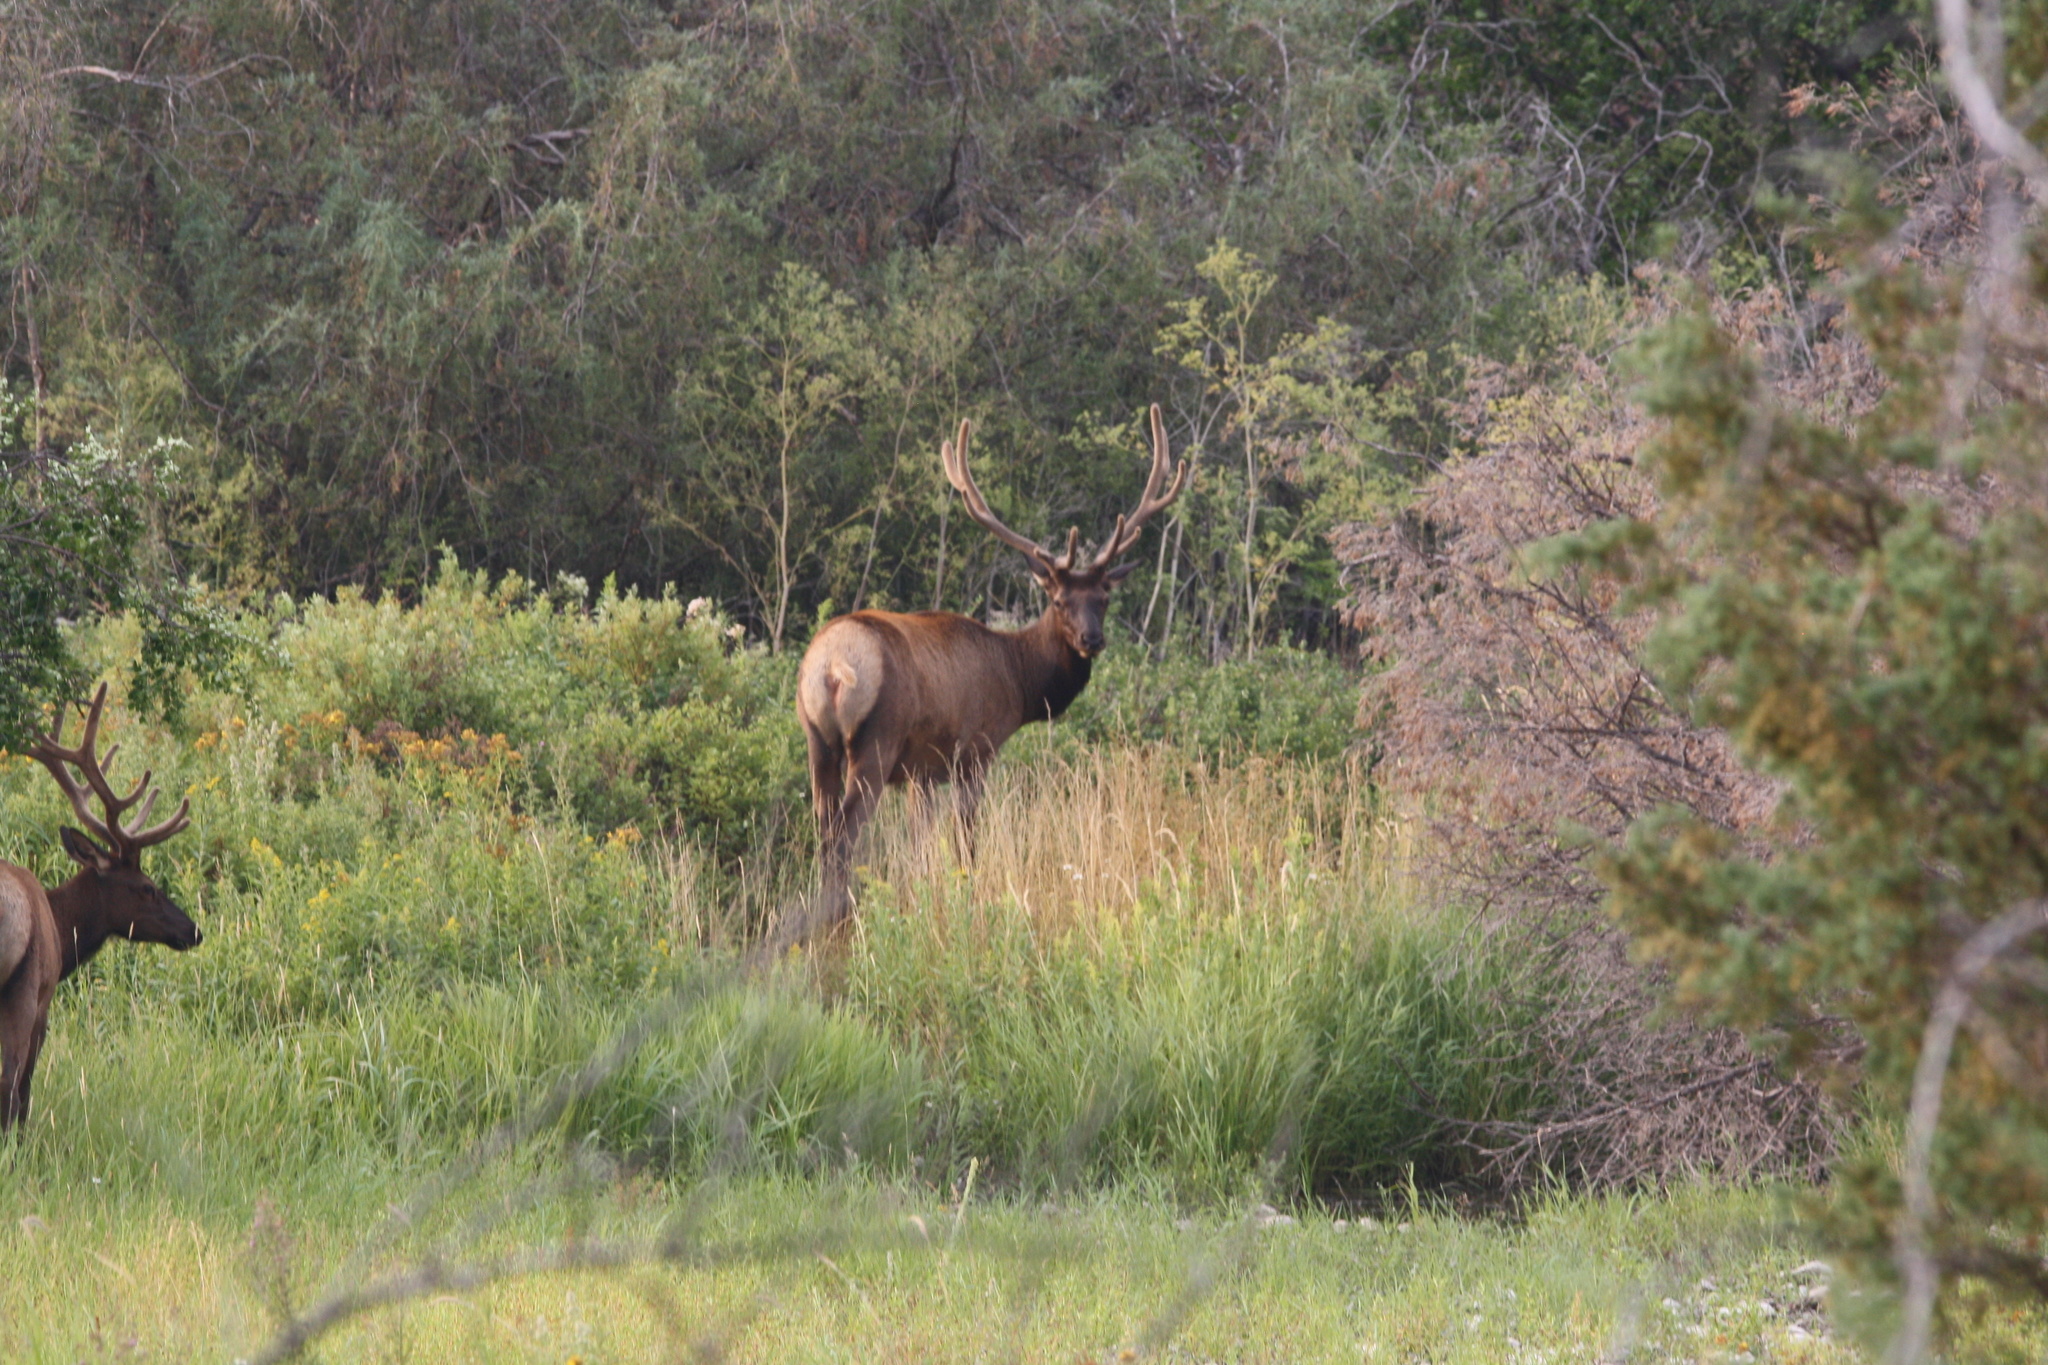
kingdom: Animalia
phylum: Chordata
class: Mammalia
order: Artiodactyla
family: Cervidae
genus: Cervus
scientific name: Cervus elaphus
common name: Red deer
